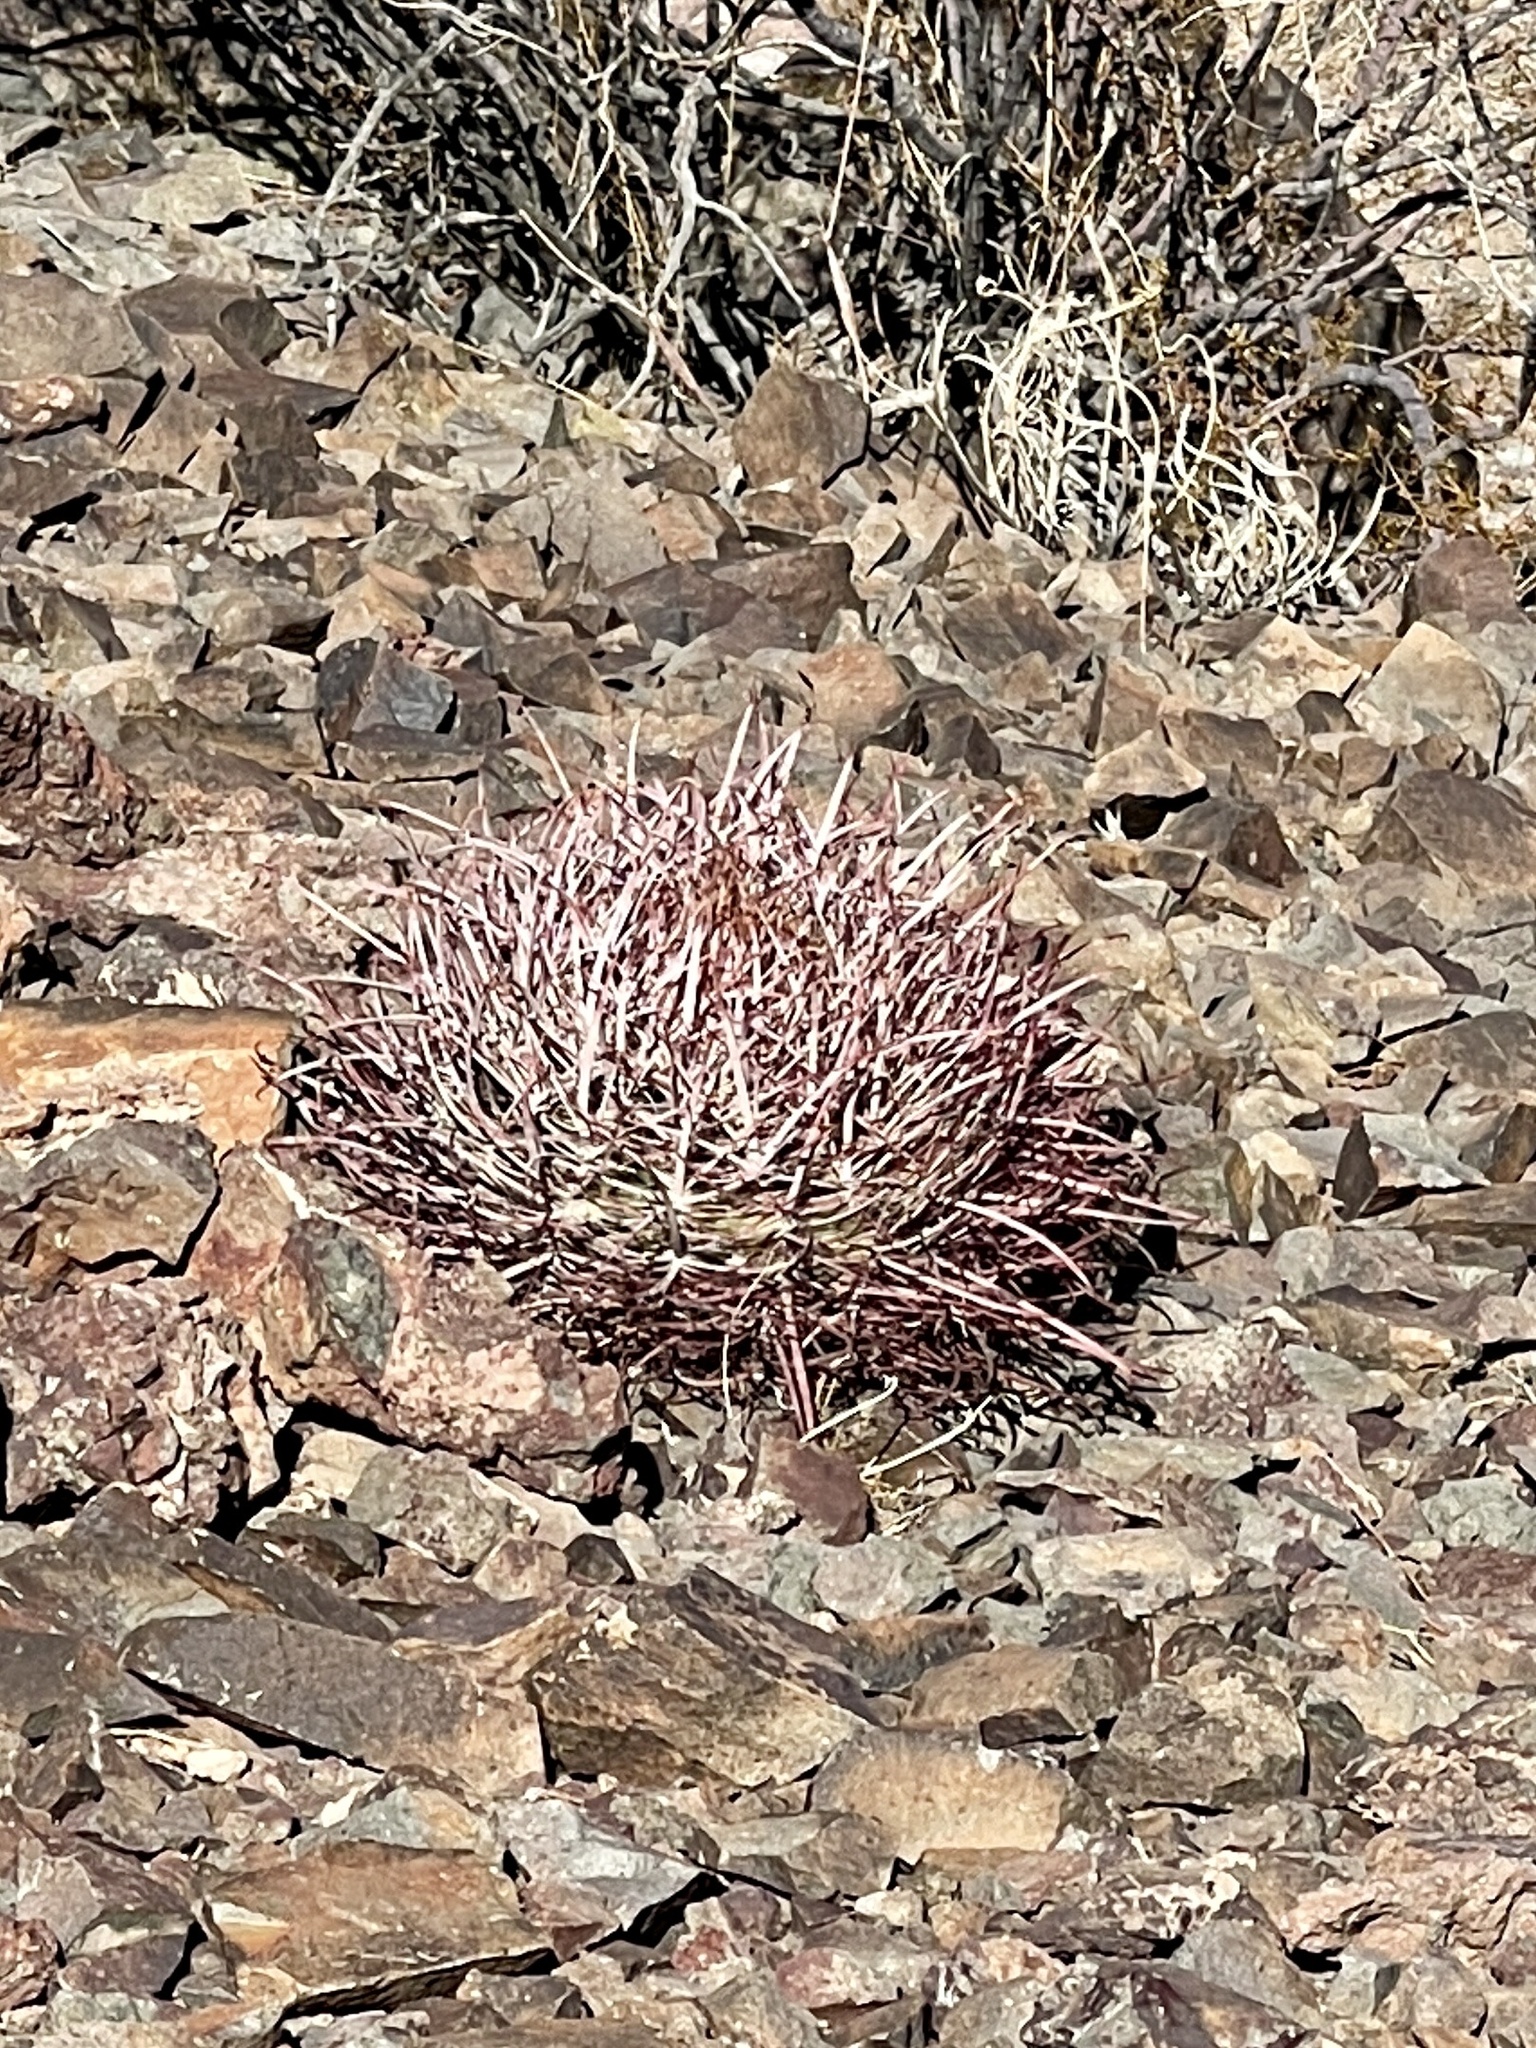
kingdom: Plantae
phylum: Tracheophyta
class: Magnoliopsida
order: Caryophyllales
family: Cactaceae
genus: Echinocactus
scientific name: Echinocactus polycephalus
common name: Cottontop cactus
